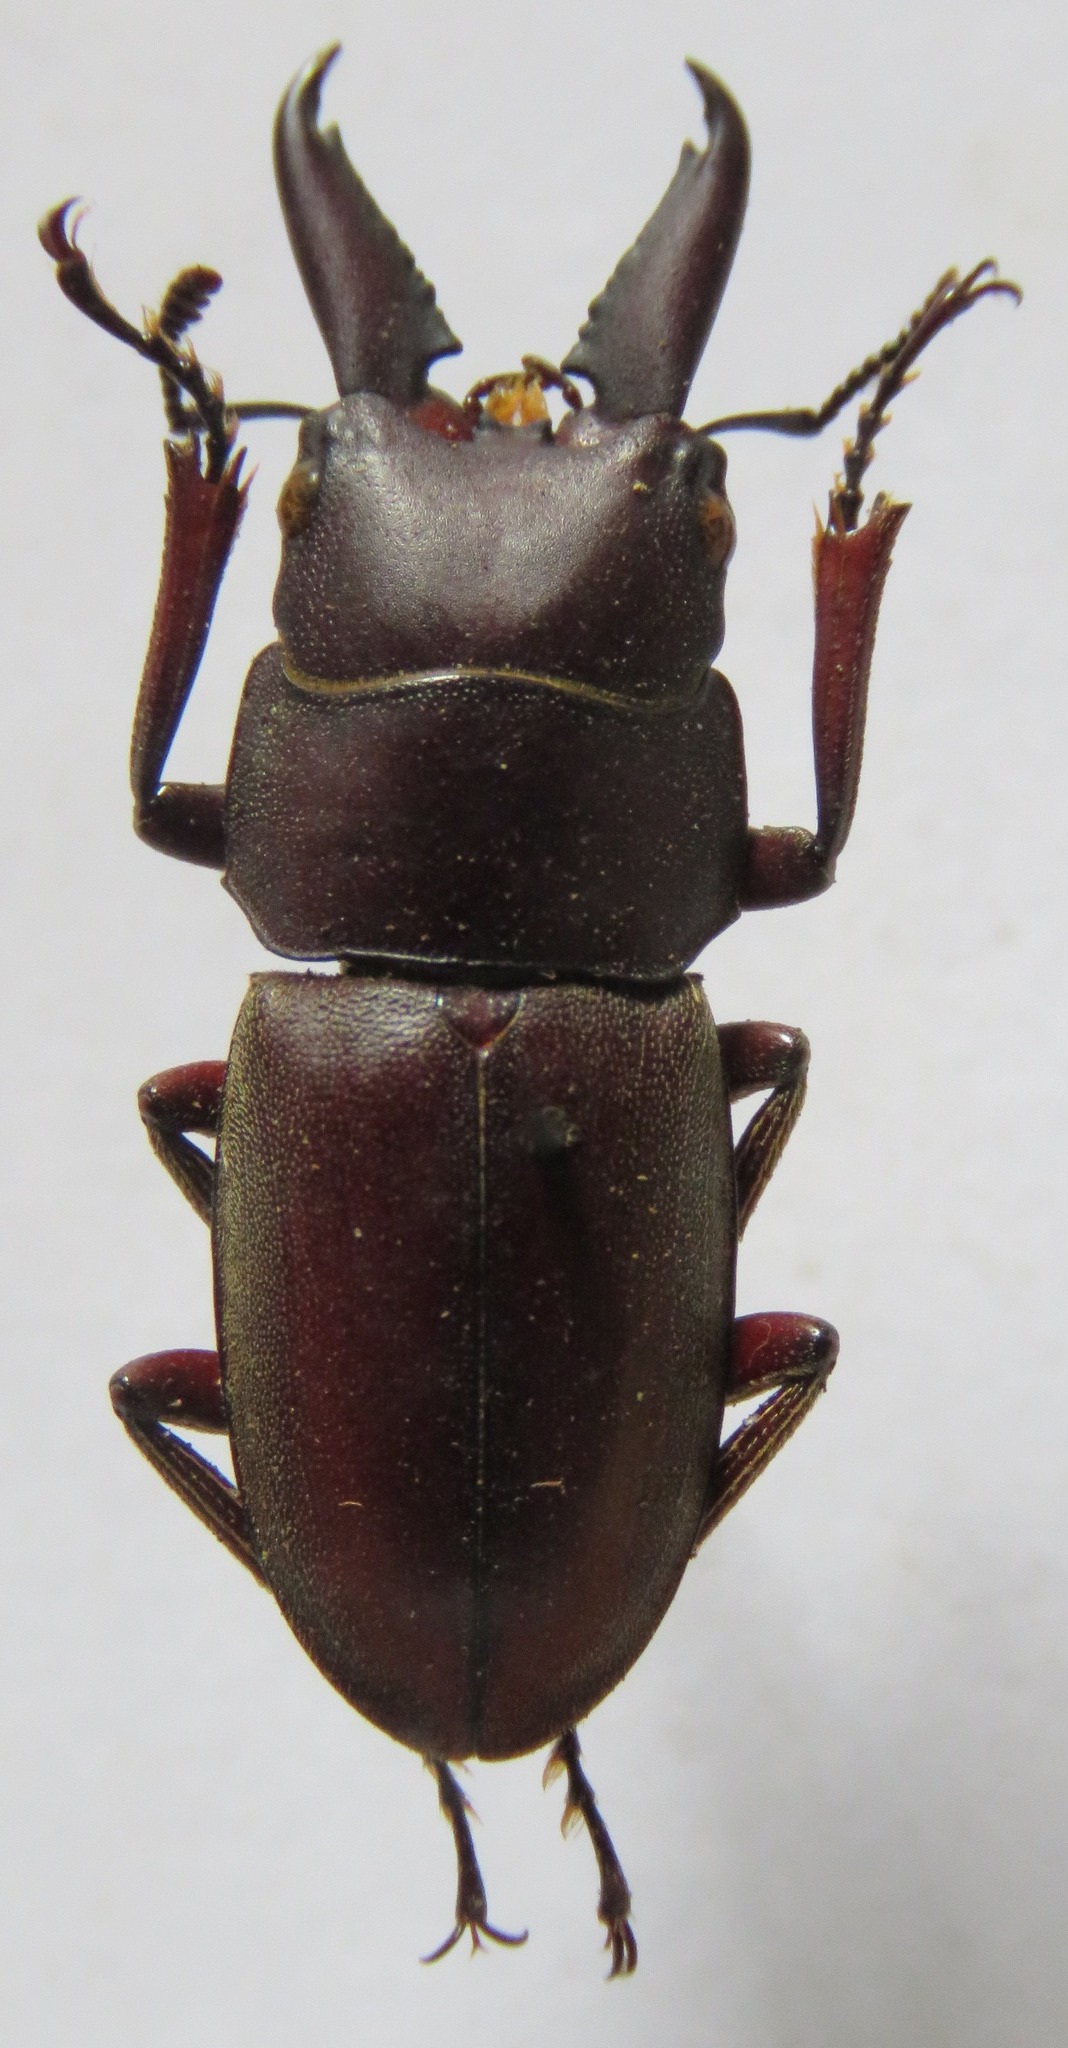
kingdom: Animalia
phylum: Arthropoda
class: Insecta
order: Coleoptera
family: Lucanidae
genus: Prosopocoilus
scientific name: Prosopocoilus mysticus
